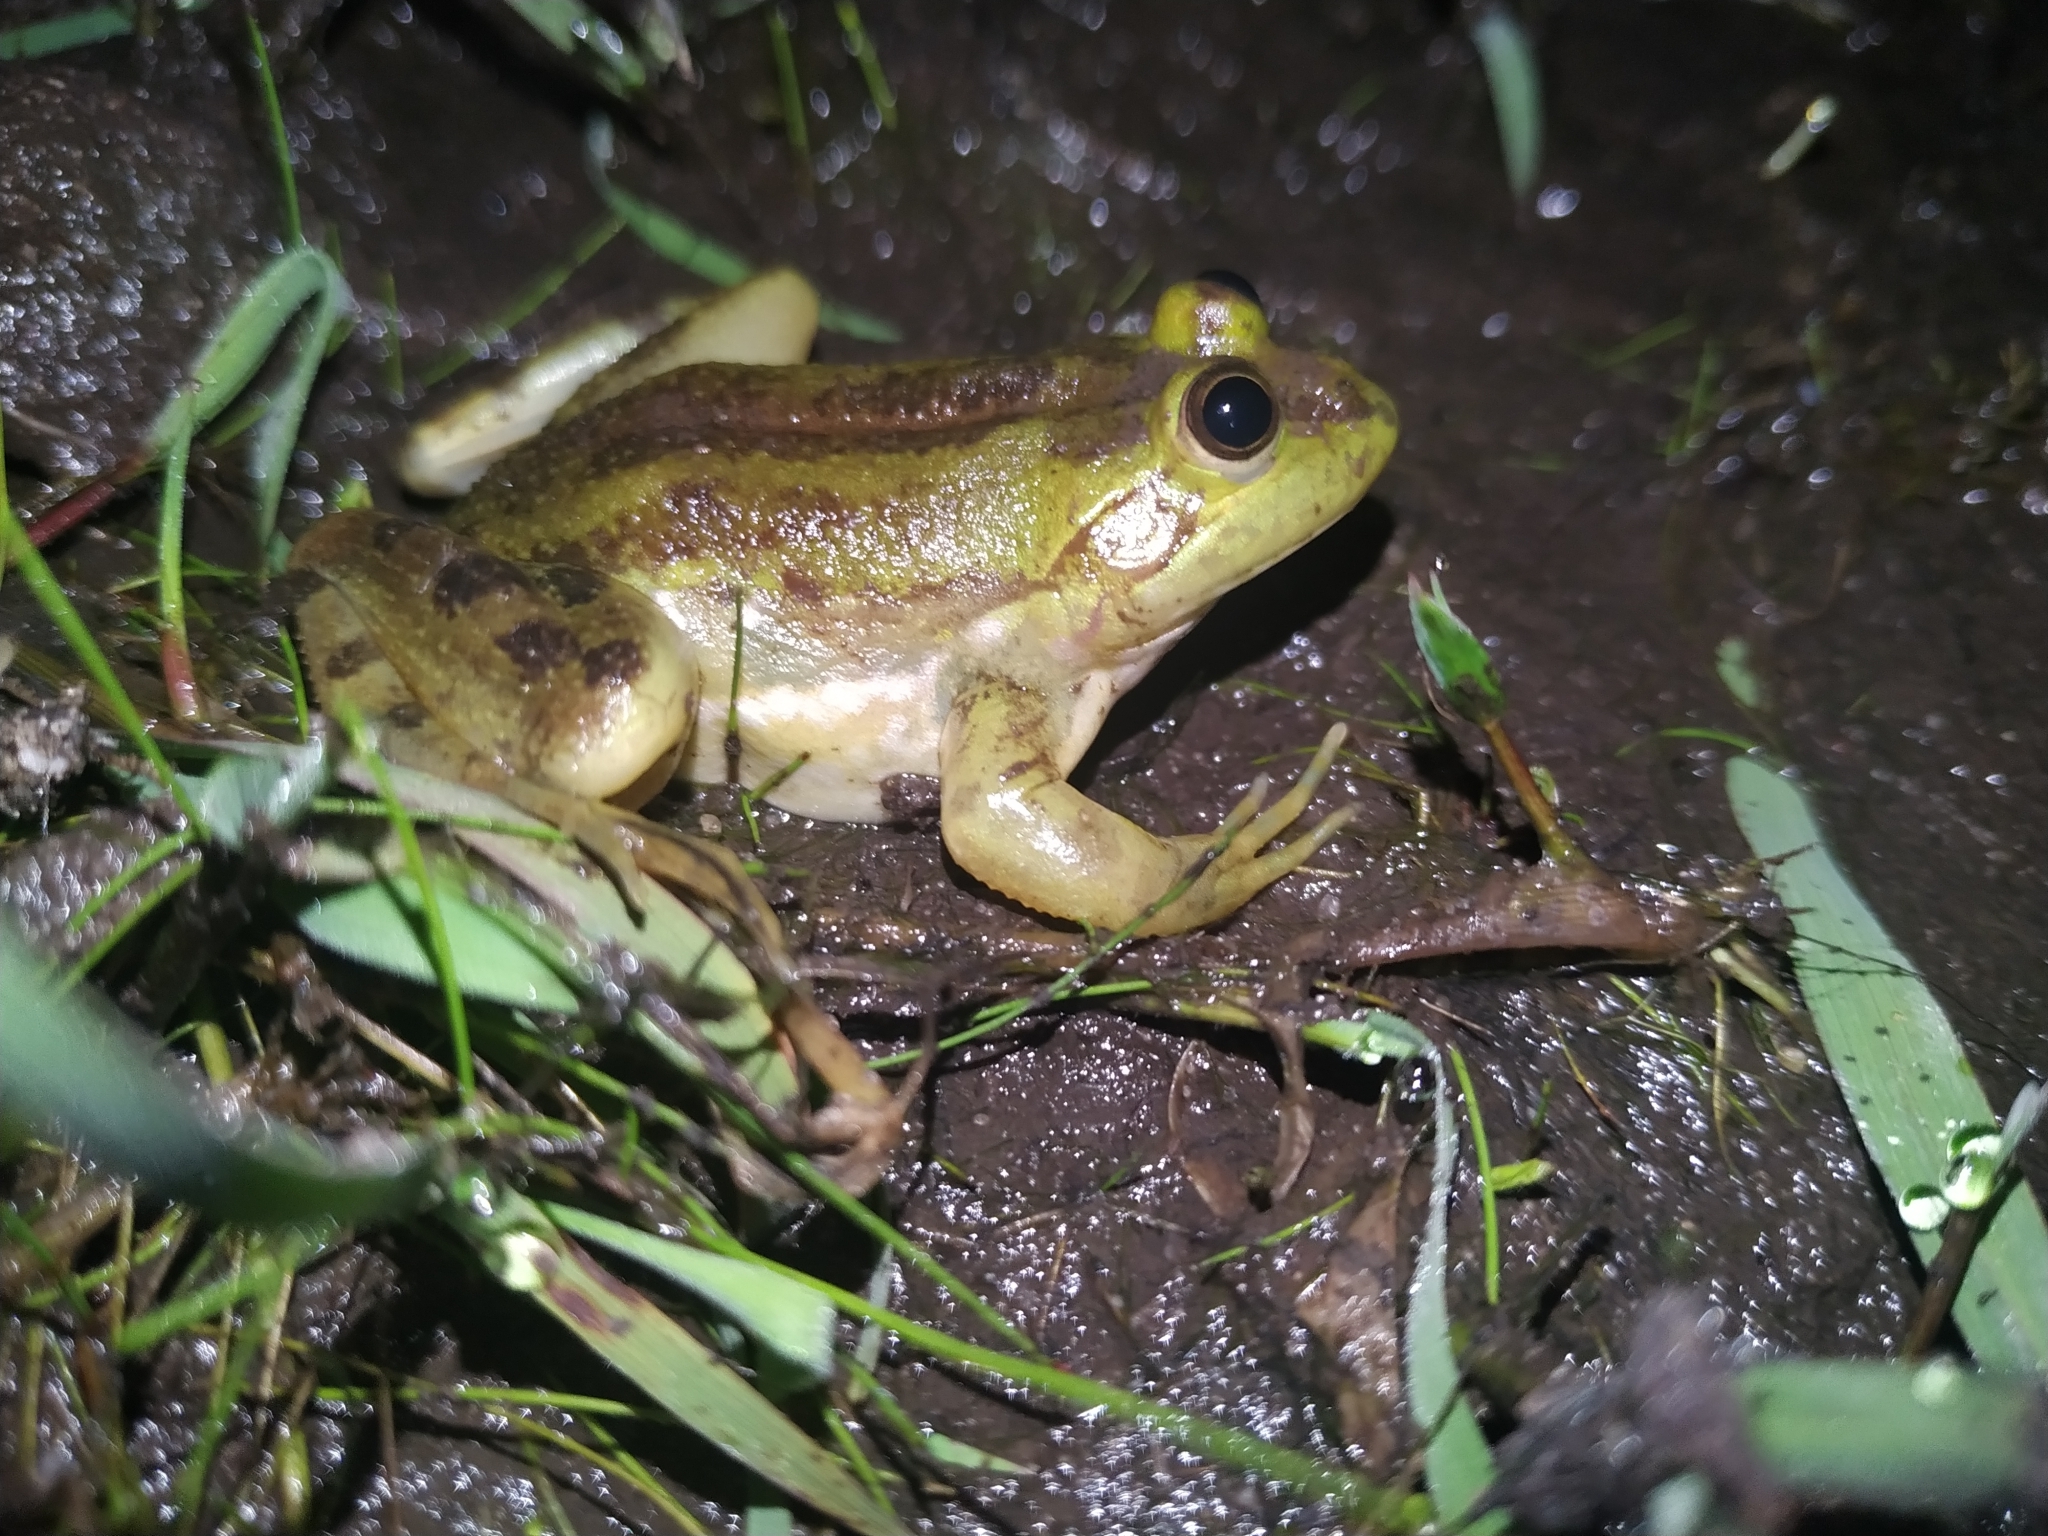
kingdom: Animalia
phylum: Chordata
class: Amphibia
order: Anura
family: Hylidae
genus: Pseudis
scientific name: Pseudis minuta
